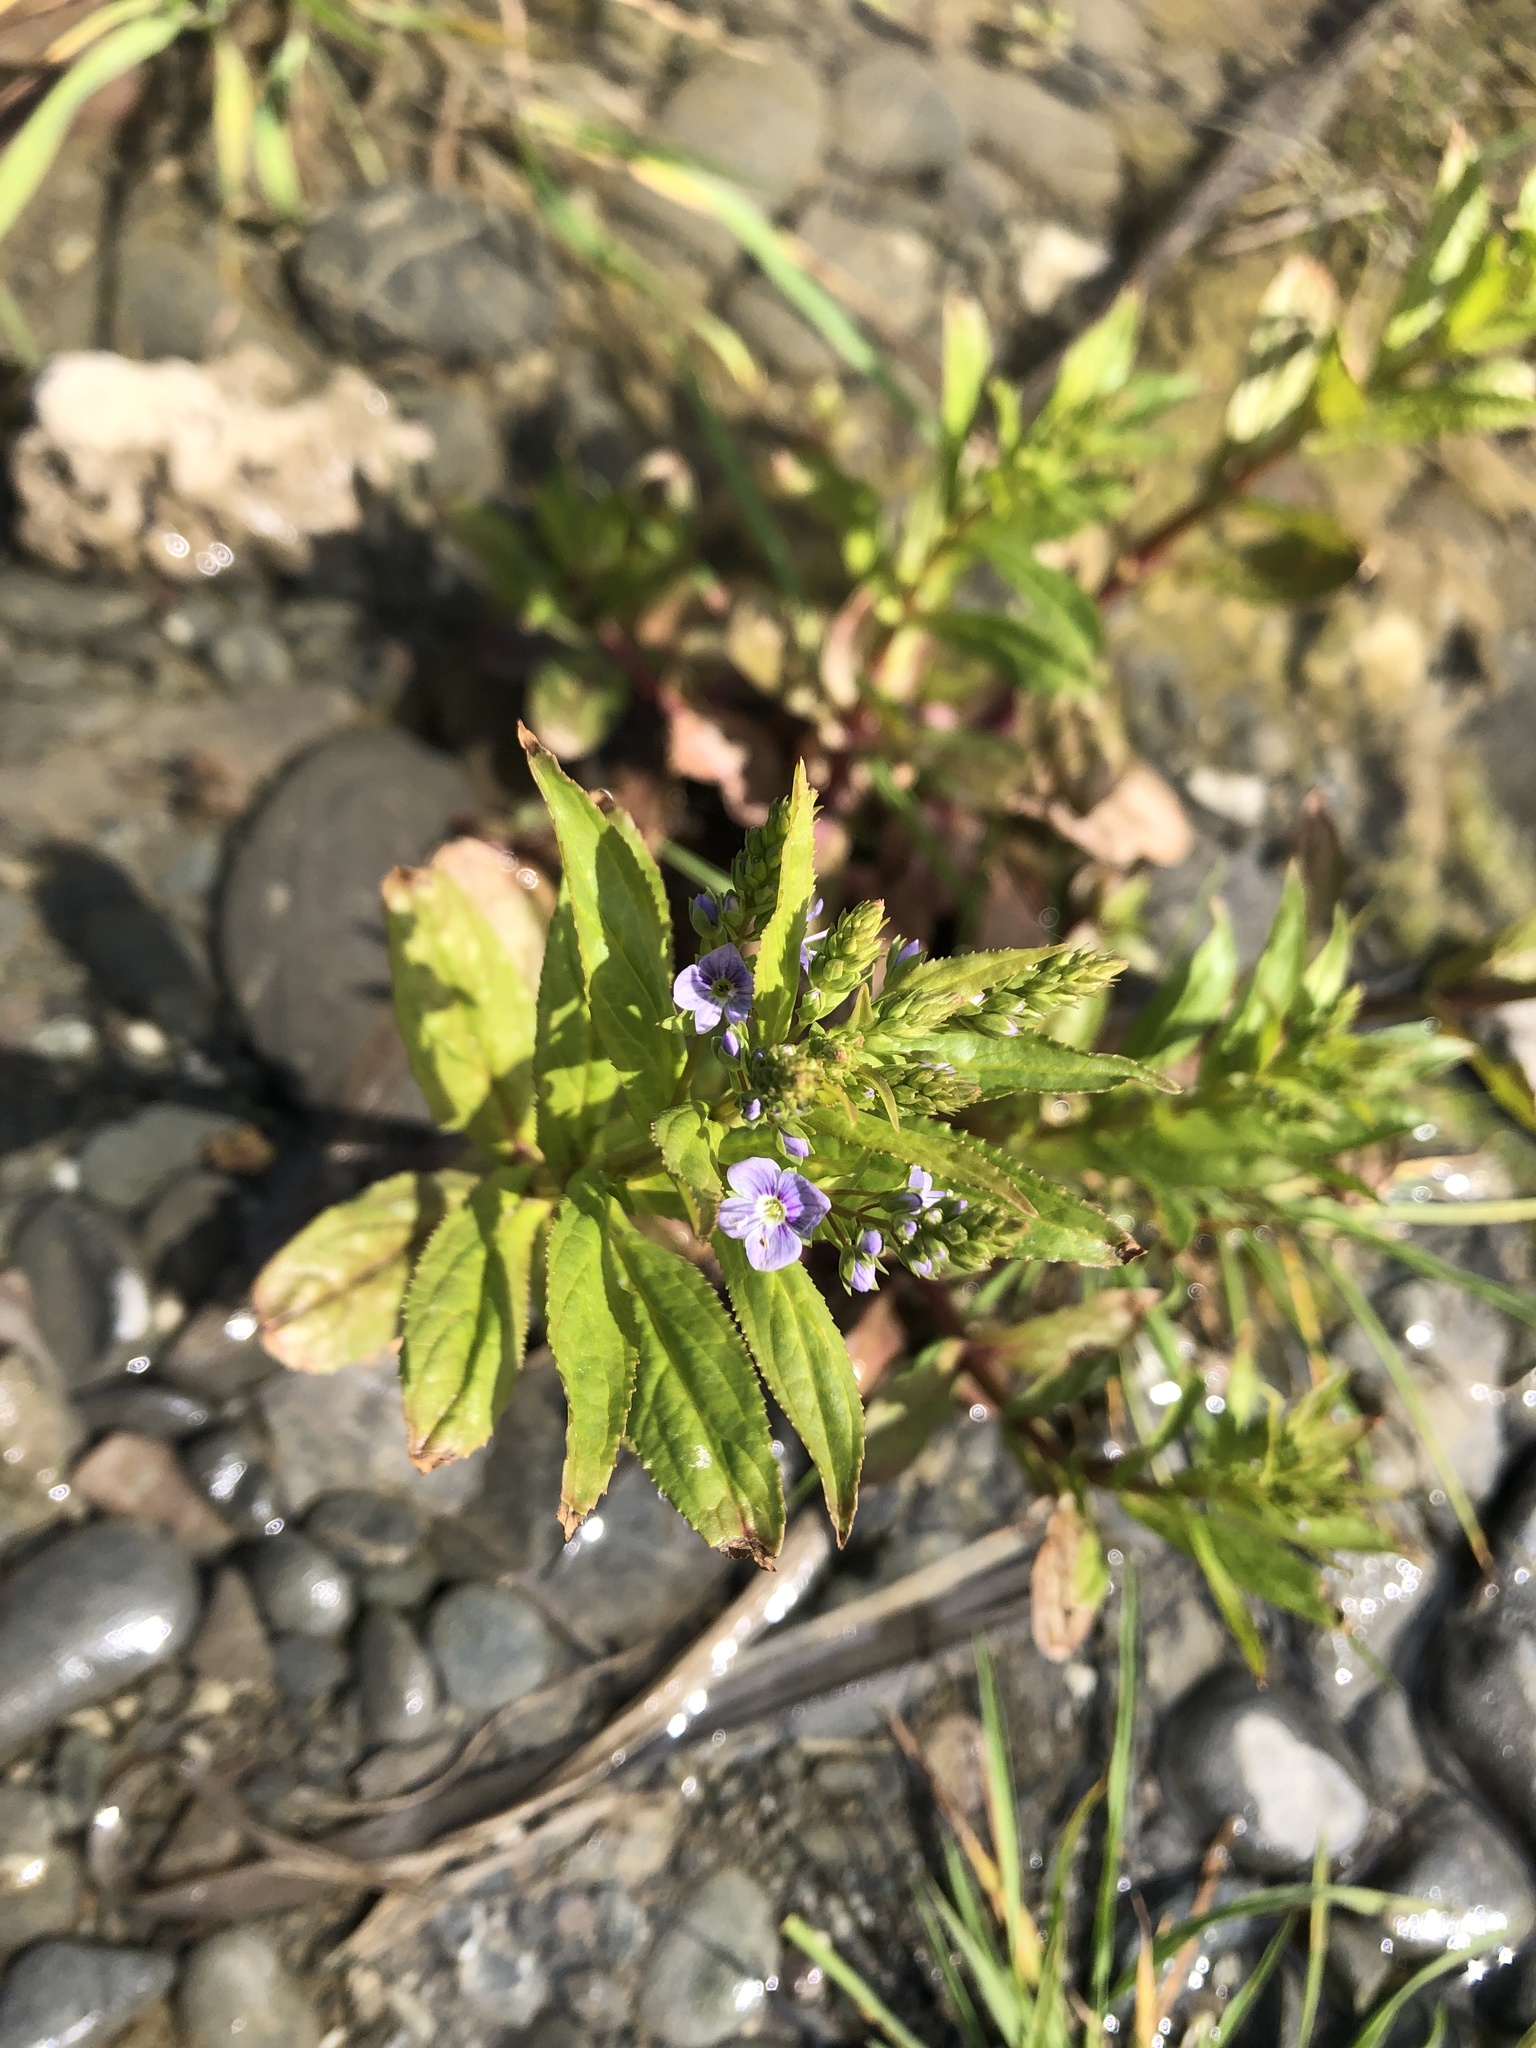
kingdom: Plantae
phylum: Tracheophyta
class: Magnoliopsida
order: Lamiales
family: Plantaginaceae
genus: Veronica
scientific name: Veronica anagallis-aquatica
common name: Water speedwell
